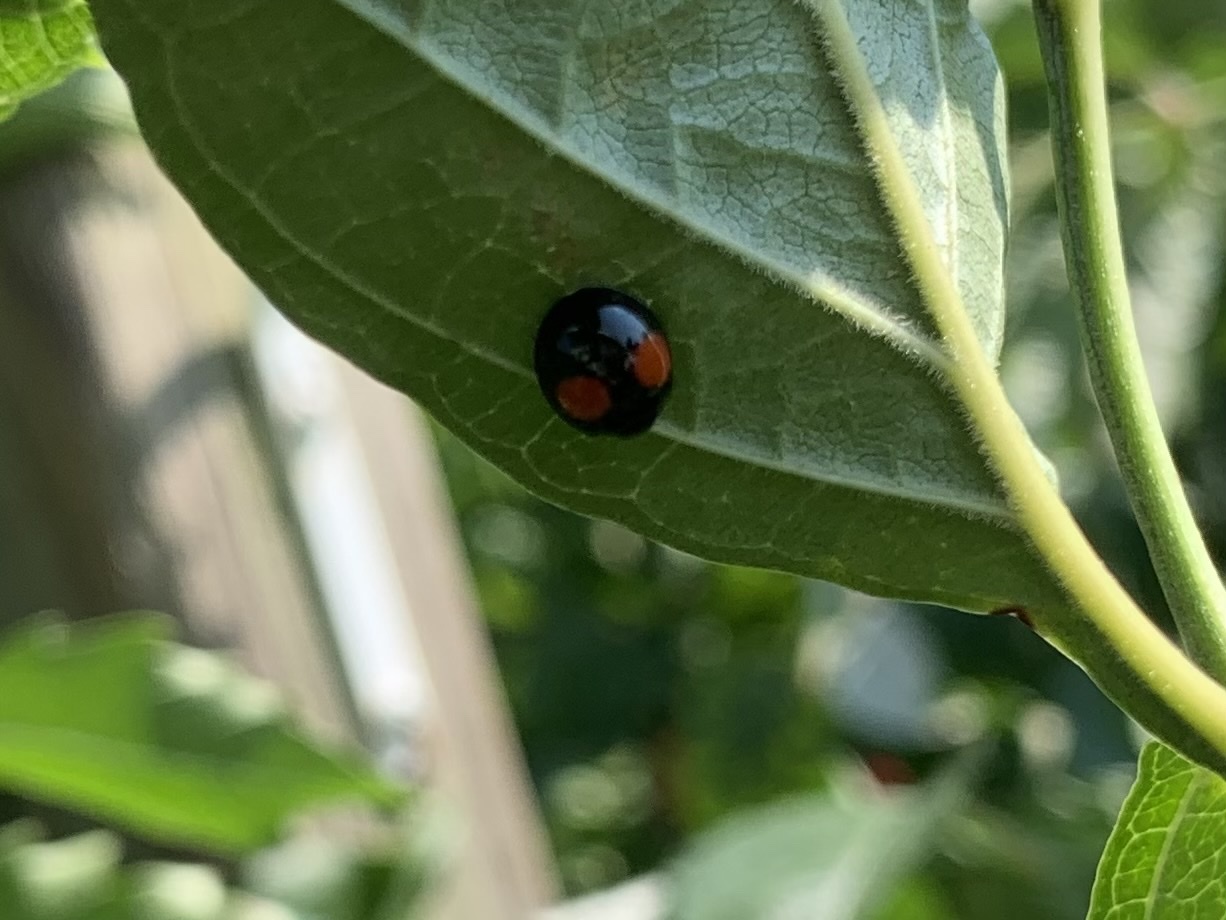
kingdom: Animalia
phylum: Arthropoda
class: Insecta
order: Coleoptera
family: Coccinellidae
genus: Chilocorus
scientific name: Chilocorus stigma
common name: Twicestabbed lady beetle
